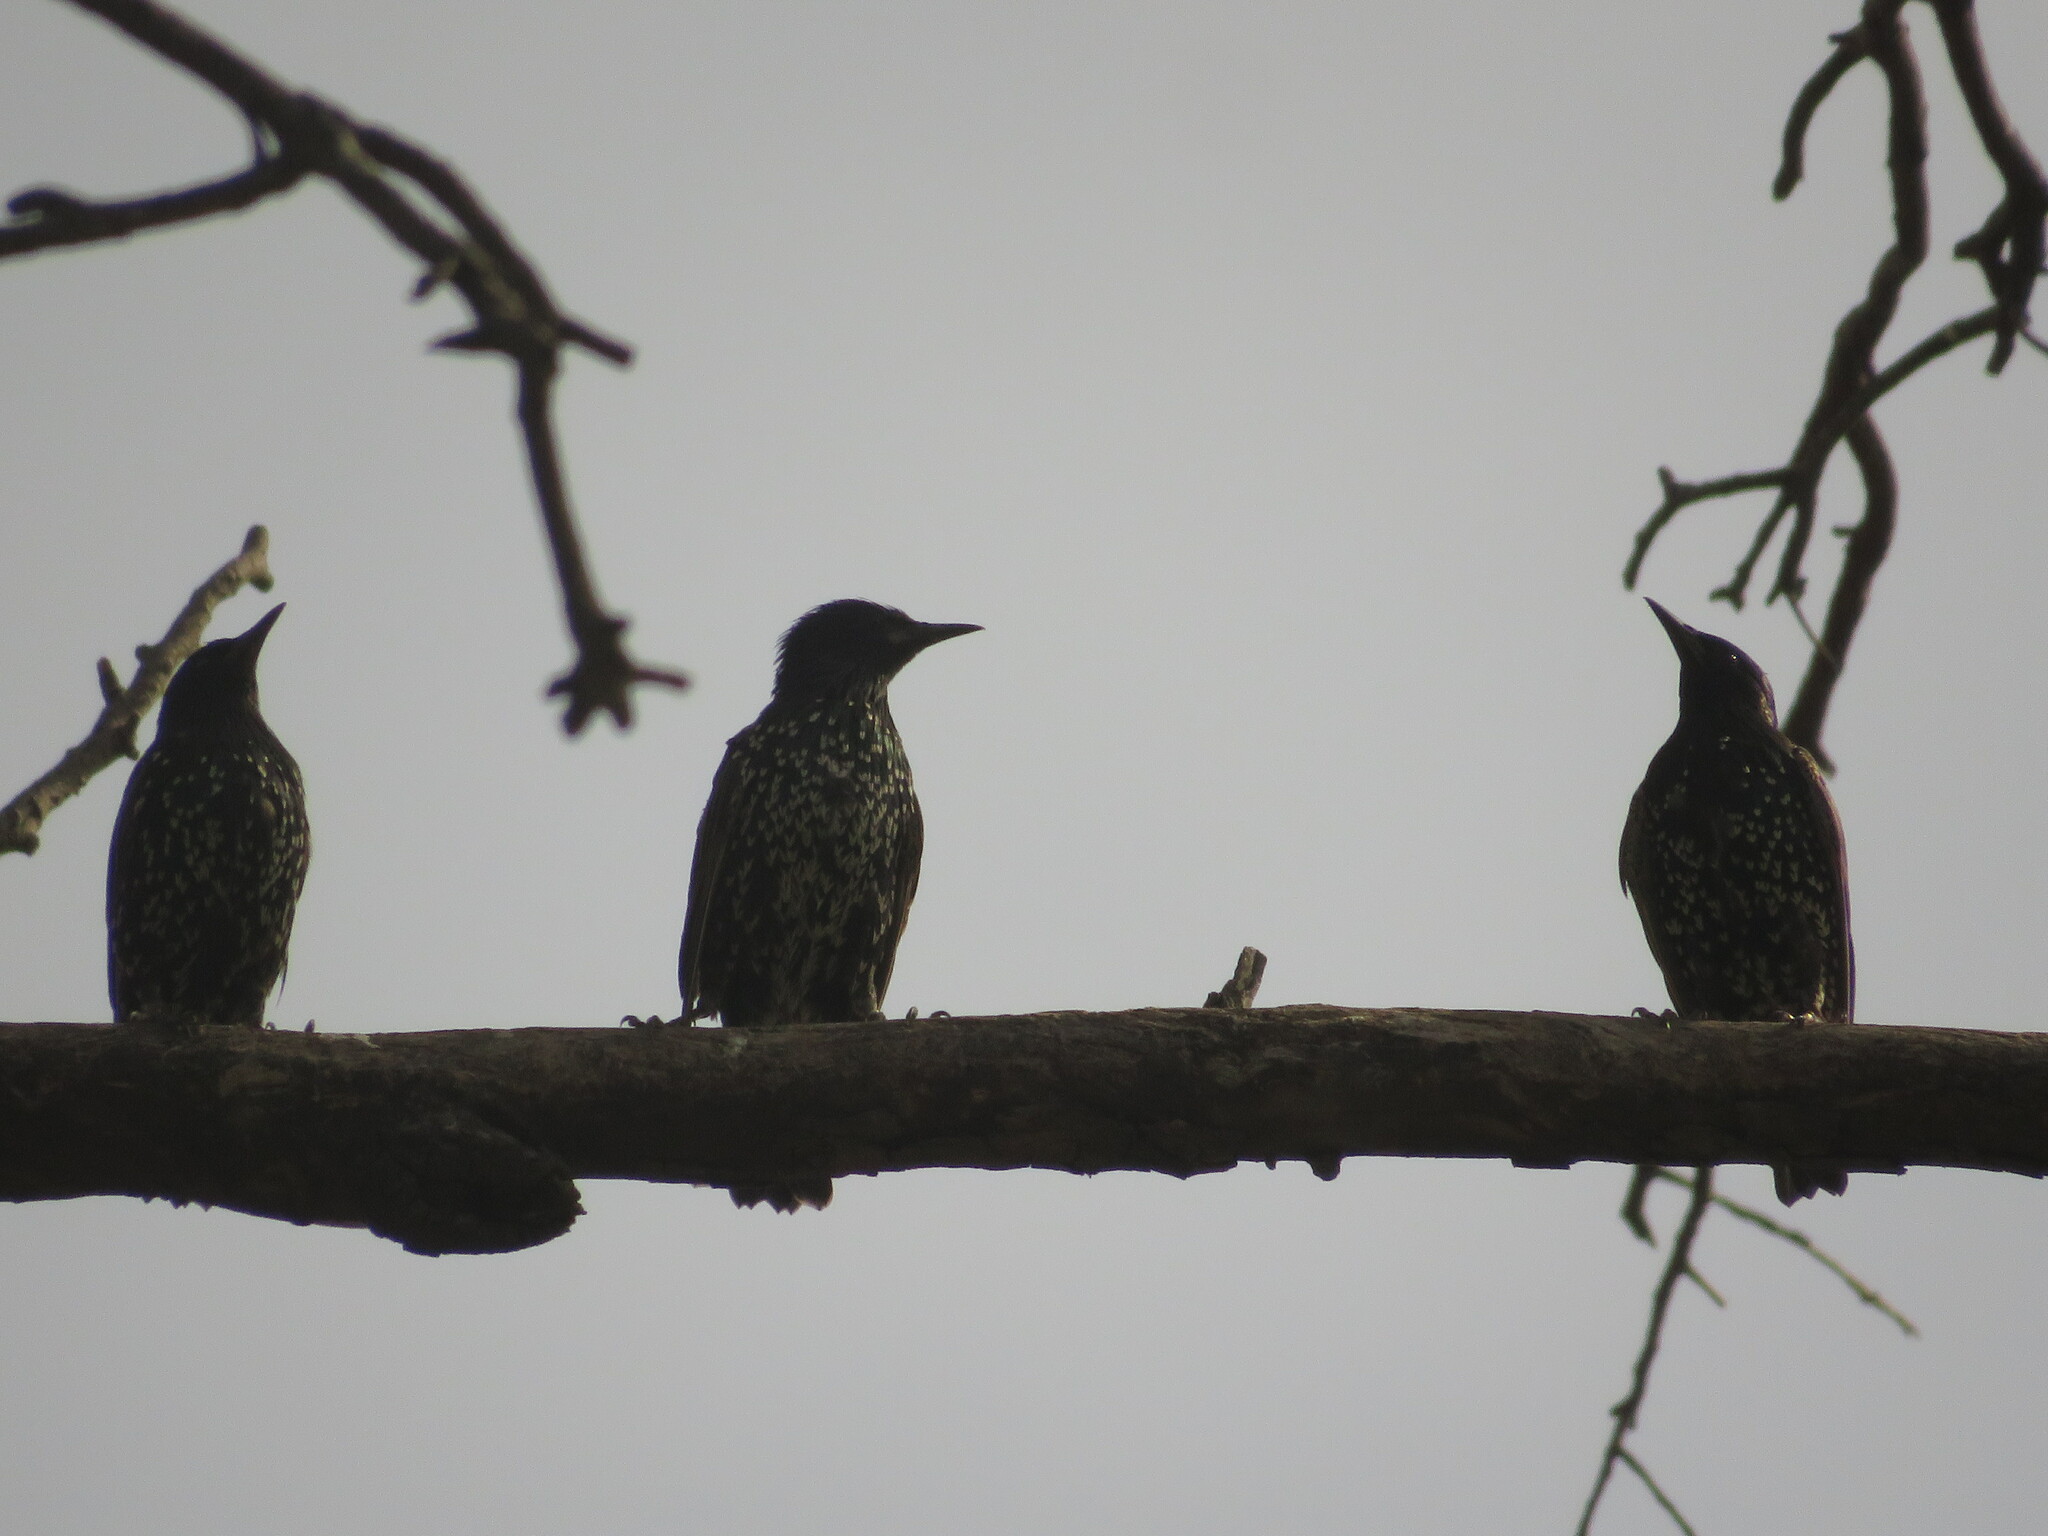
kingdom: Animalia
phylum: Chordata
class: Aves
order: Passeriformes
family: Sturnidae
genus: Sturnus
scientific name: Sturnus vulgaris
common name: Common starling
